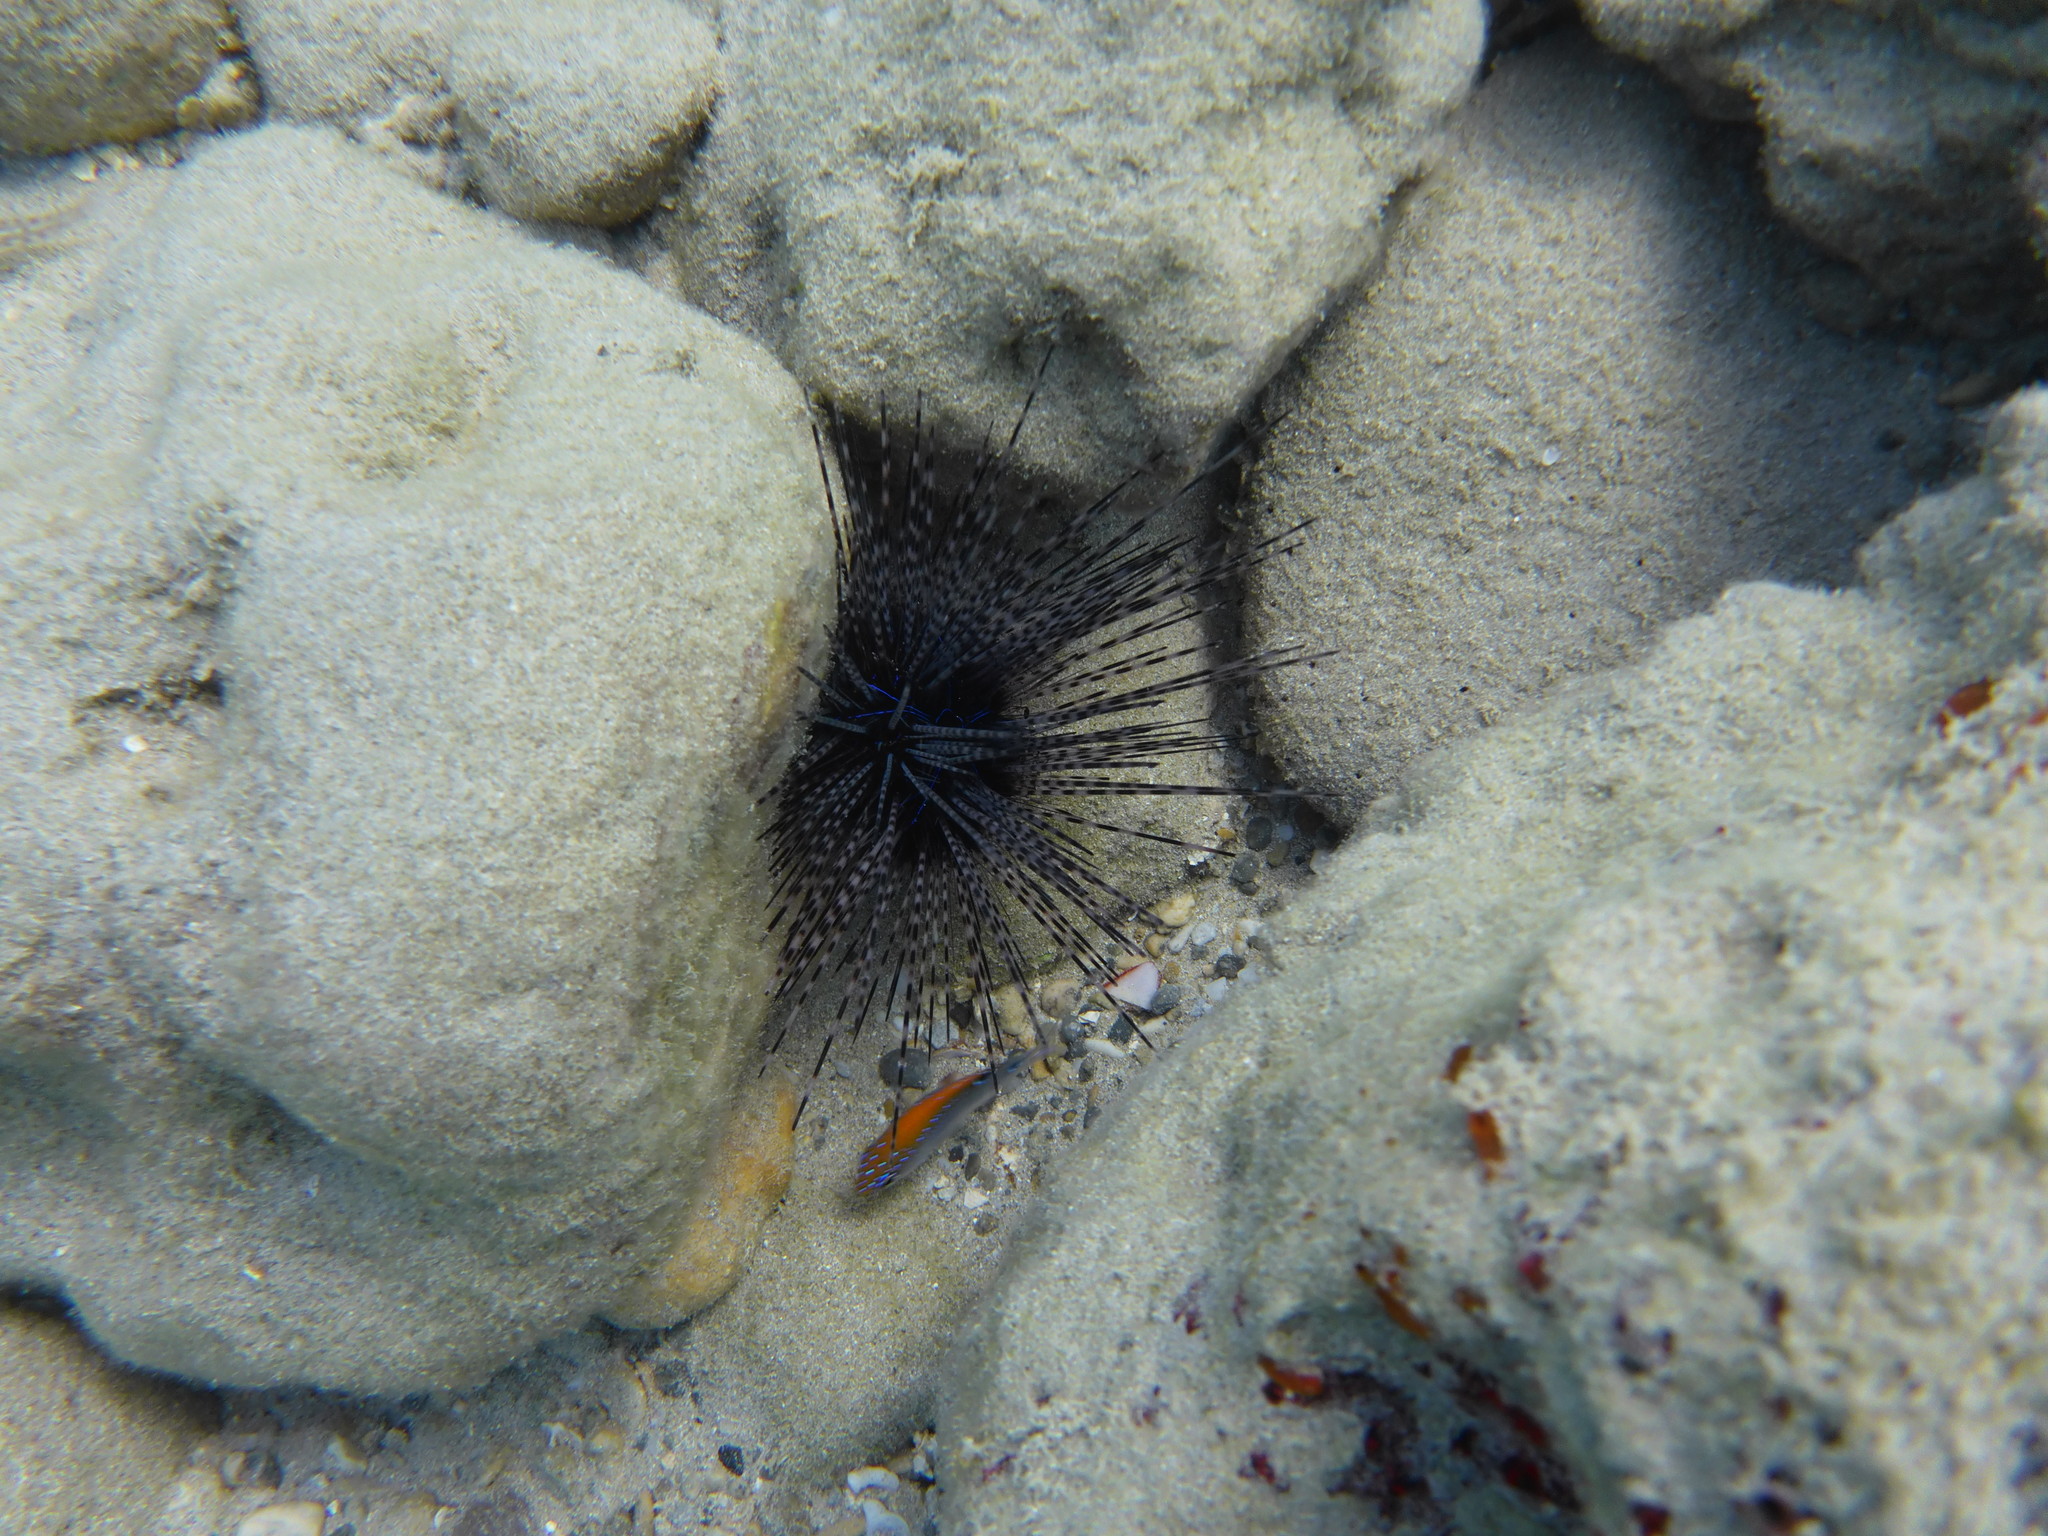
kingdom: Animalia
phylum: Echinodermata
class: Echinoidea
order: Diadematoida
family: Diadematidae
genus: Diadema
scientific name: Diadema antillarum
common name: Spiny urchin
